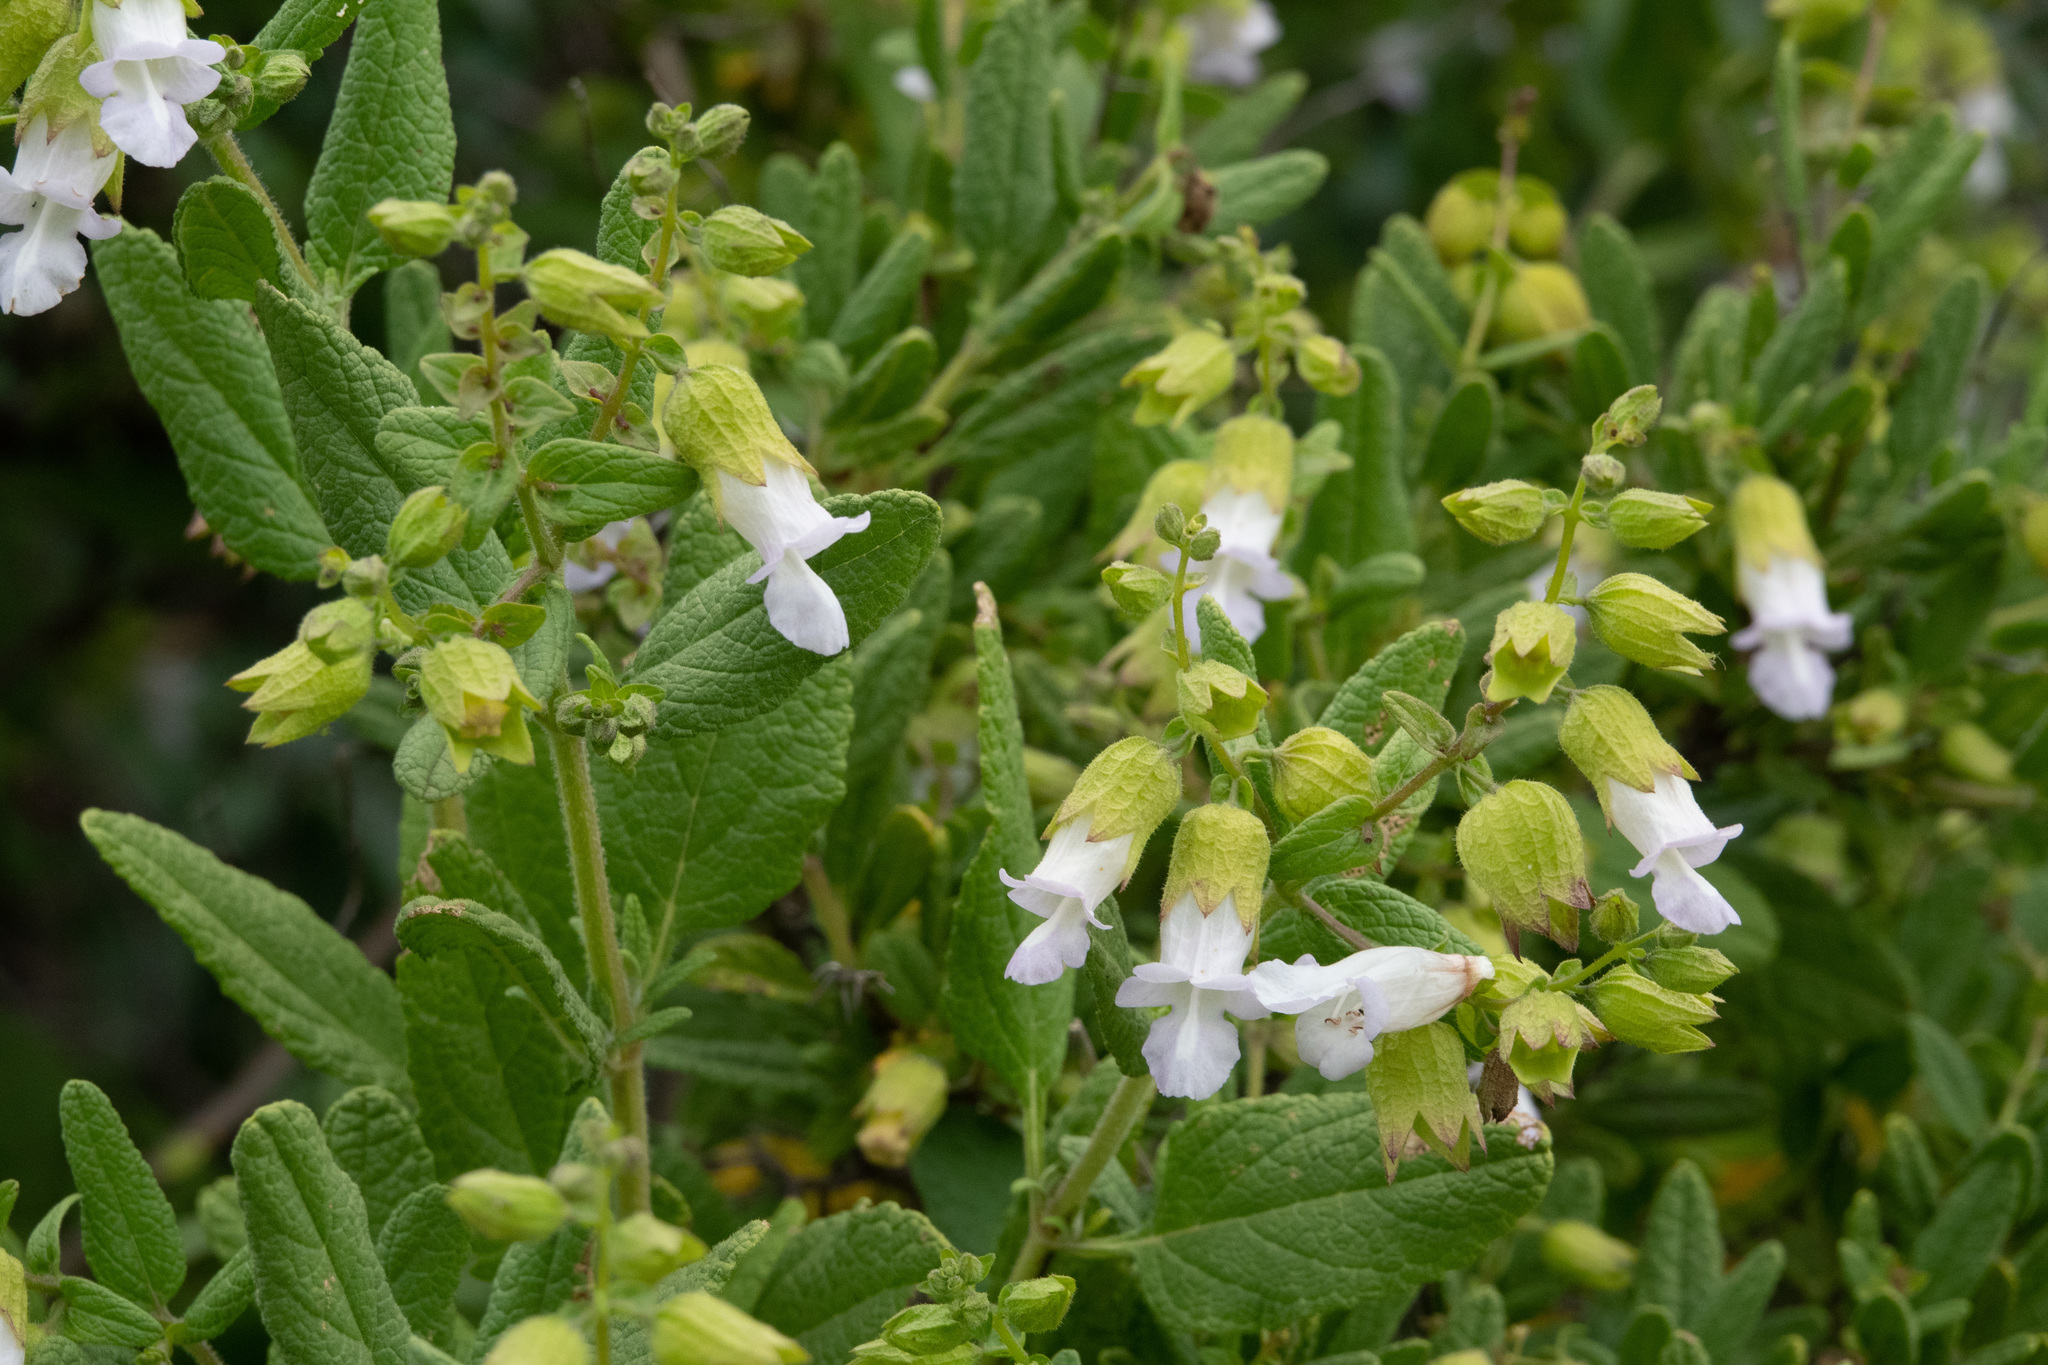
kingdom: Plantae
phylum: Tracheophyta
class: Magnoliopsida
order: Lamiales
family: Lamiaceae
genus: Lepechinia
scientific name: Lepechinia calycina
